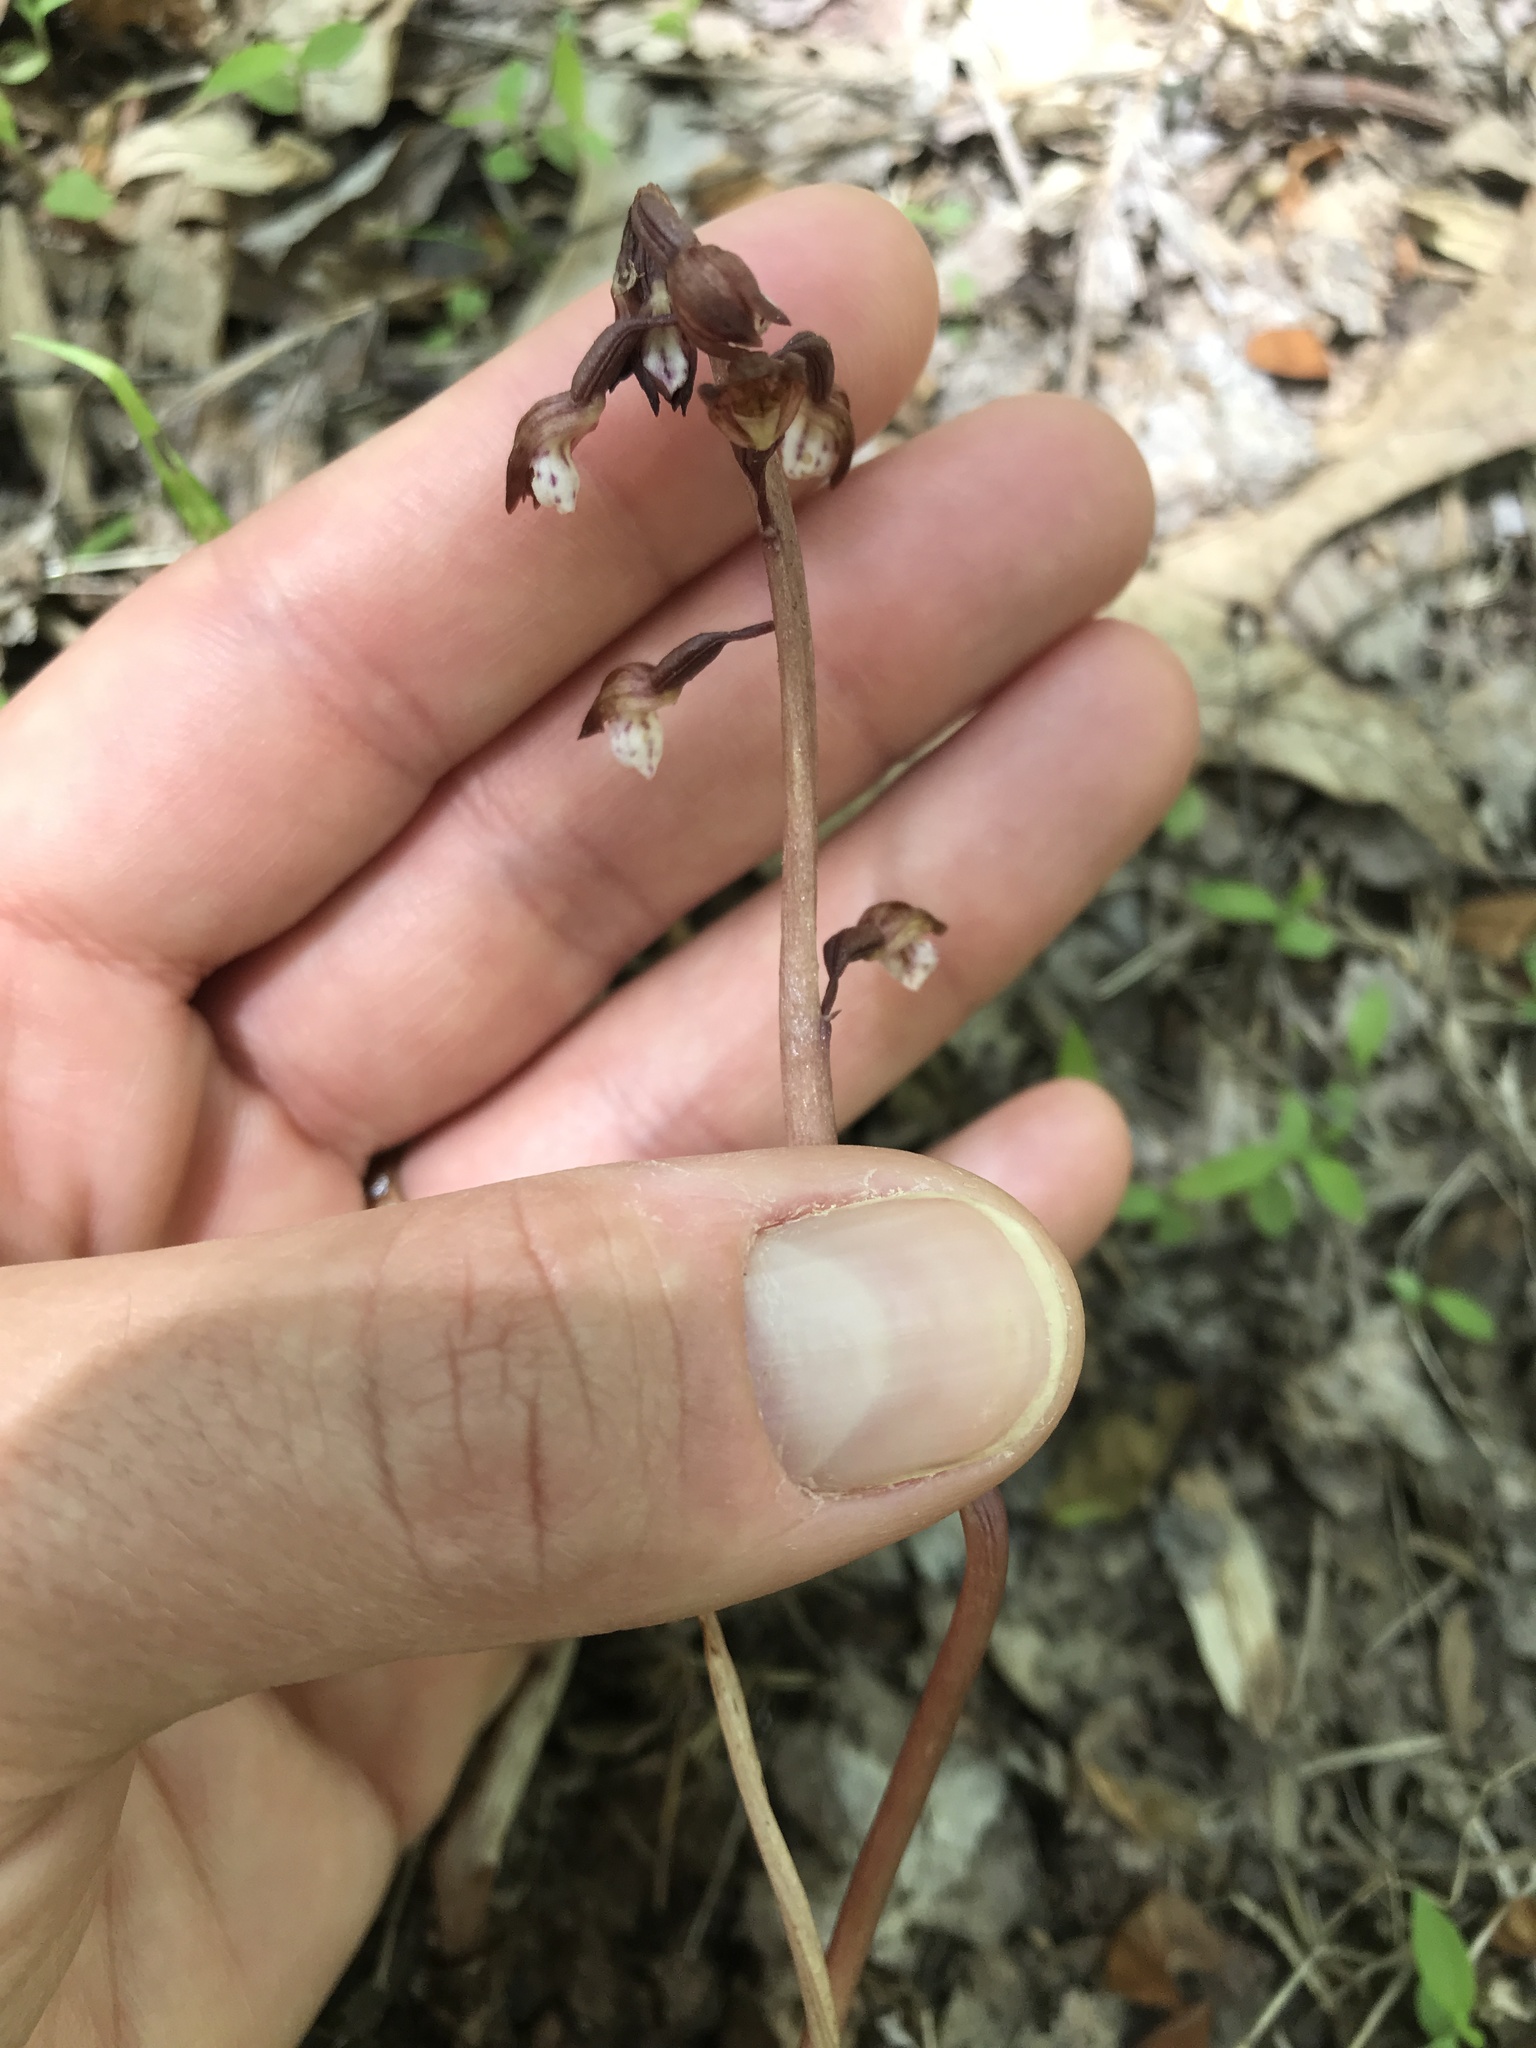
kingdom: Plantae
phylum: Tracheophyta
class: Liliopsida
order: Asparagales
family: Orchidaceae
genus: Corallorhiza
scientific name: Corallorhiza wisteriana
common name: Spring coralroot
